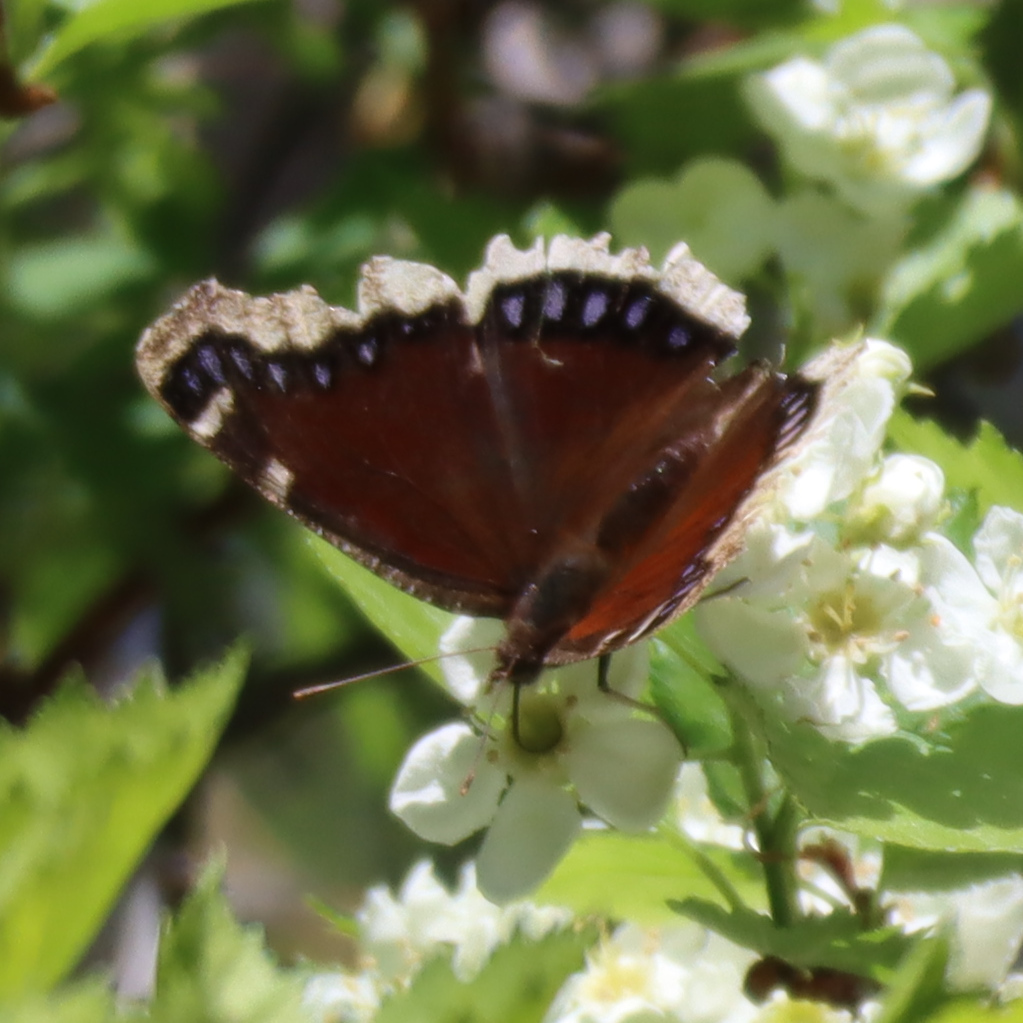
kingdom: Animalia
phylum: Arthropoda
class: Insecta
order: Lepidoptera
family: Nymphalidae
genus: Nymphalis
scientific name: Nymphalis antiopa
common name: Camberwell beauty
